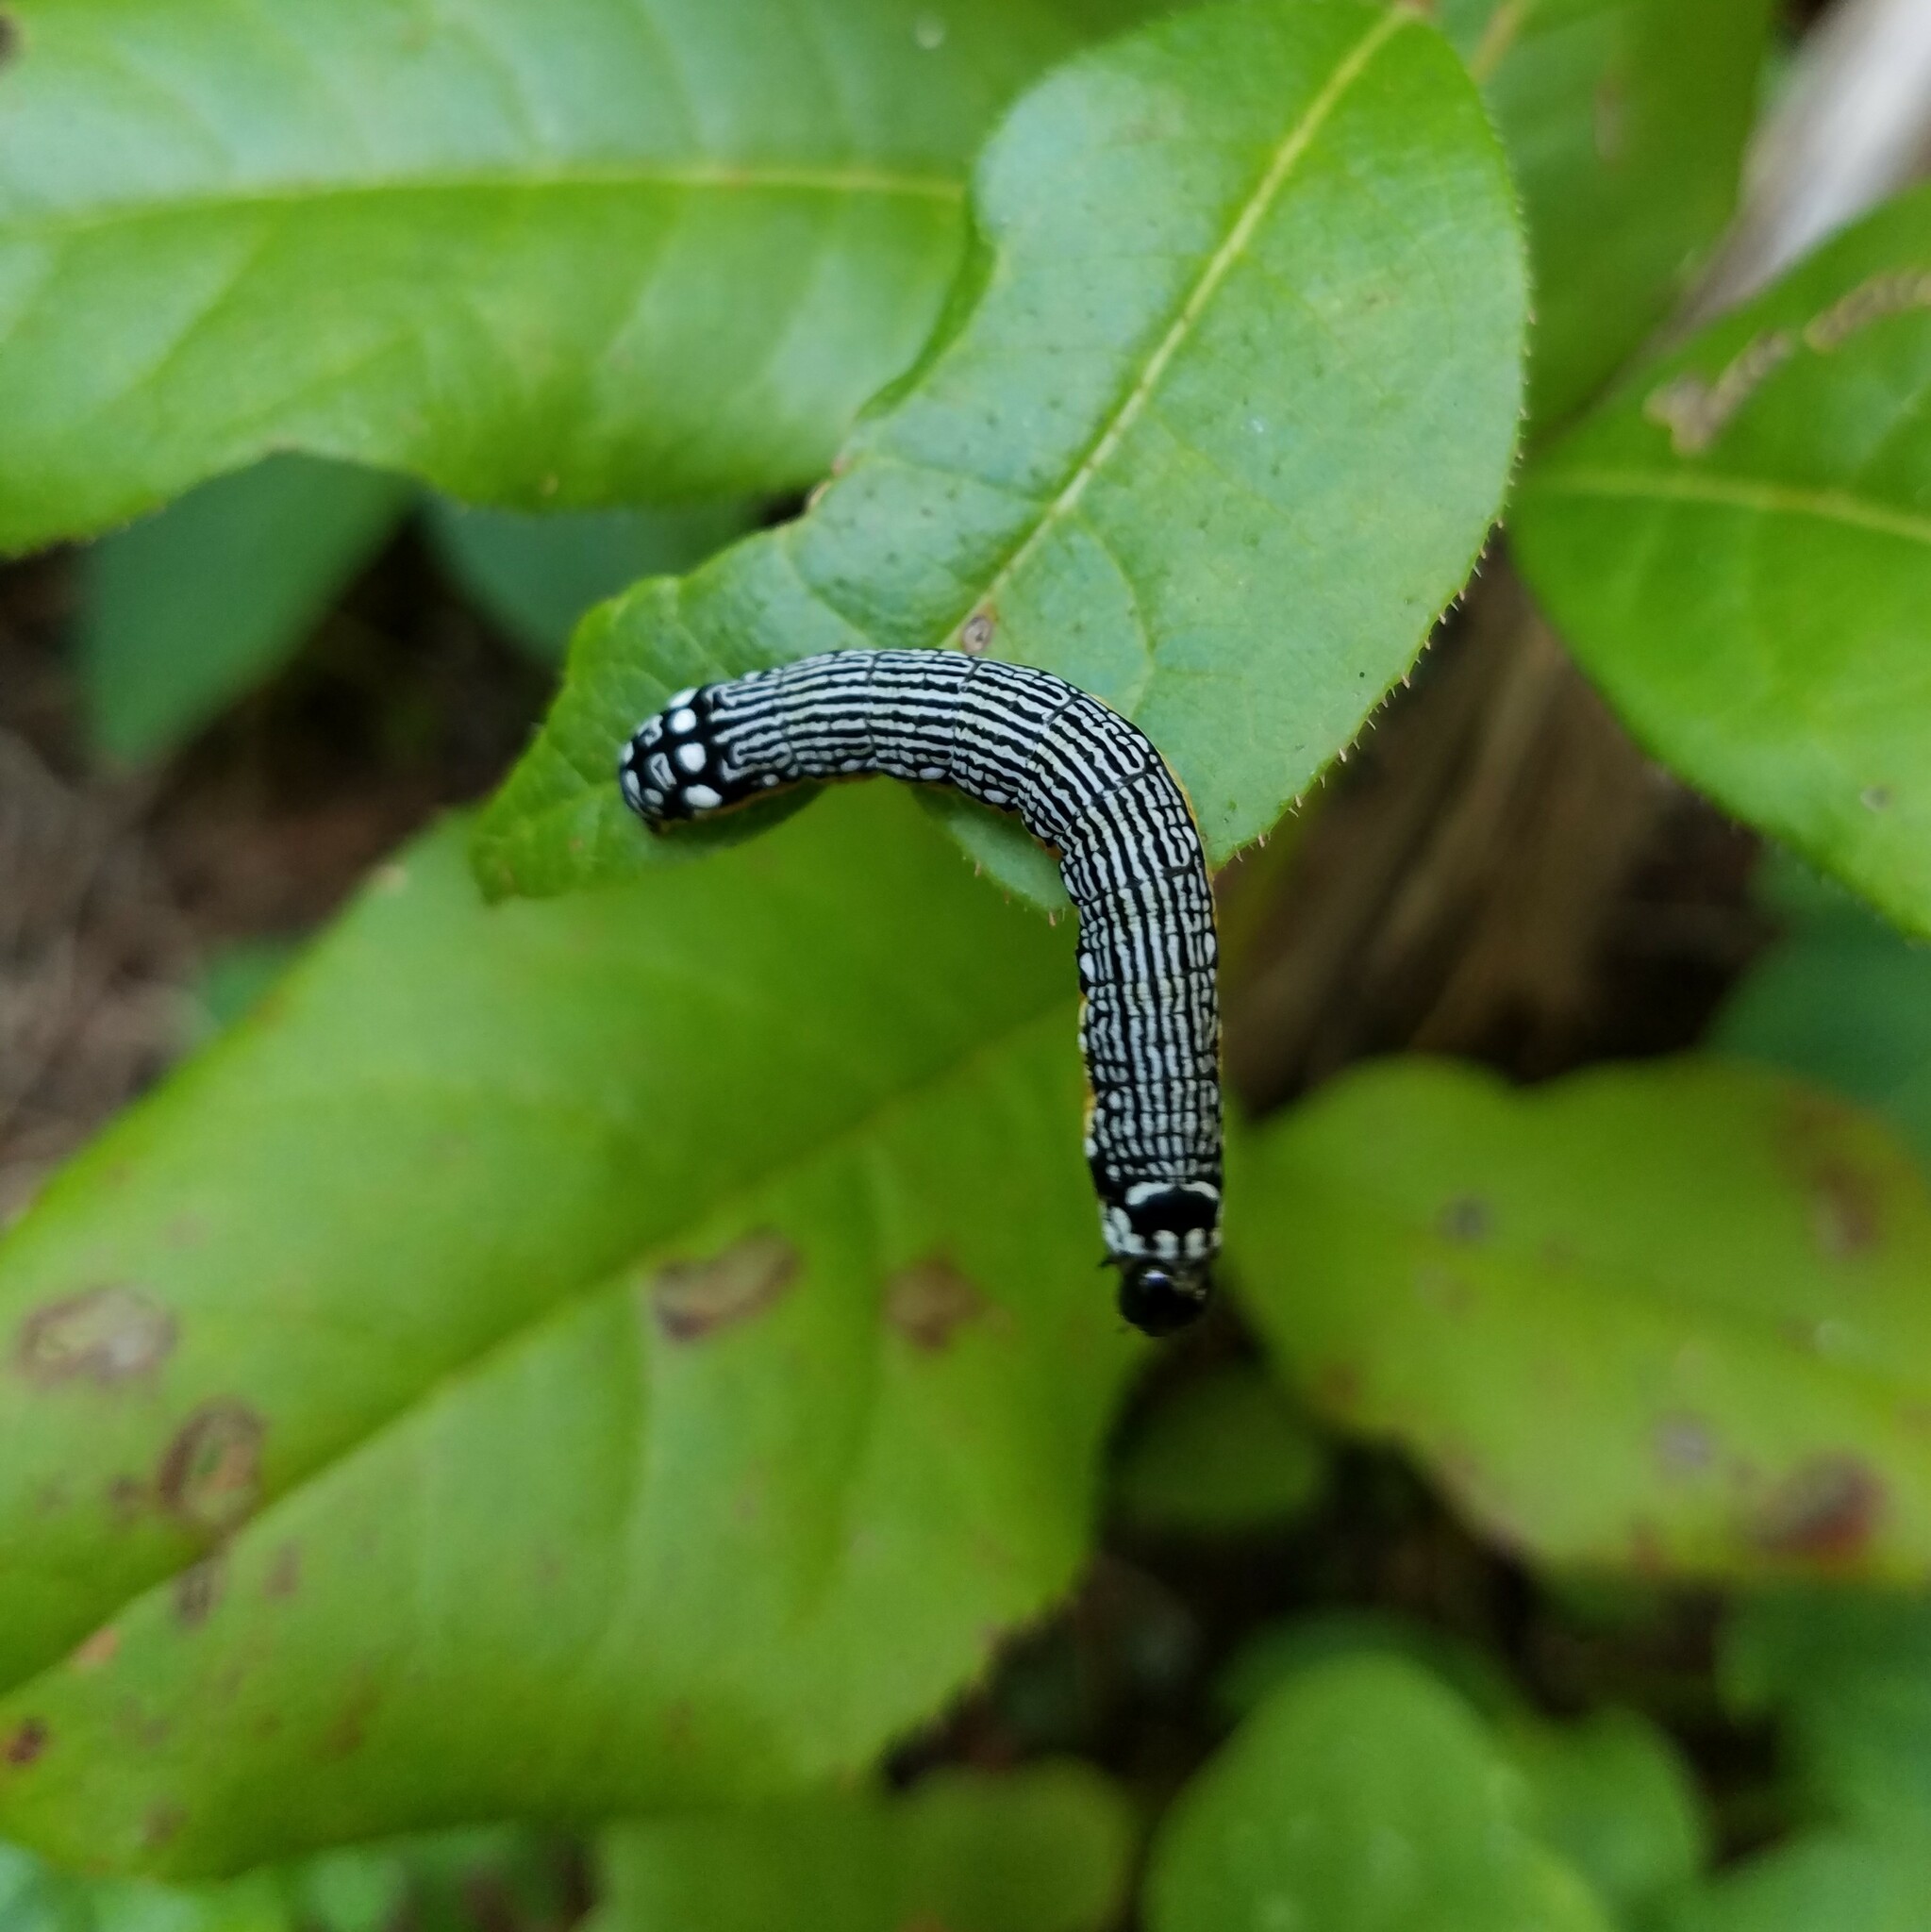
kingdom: Animalia
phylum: Arthropoda
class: Insecta
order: Lepidoptera
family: Noctuidae
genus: Phosphila
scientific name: Phosphila turbulenta
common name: Turbulent phosphila moth
